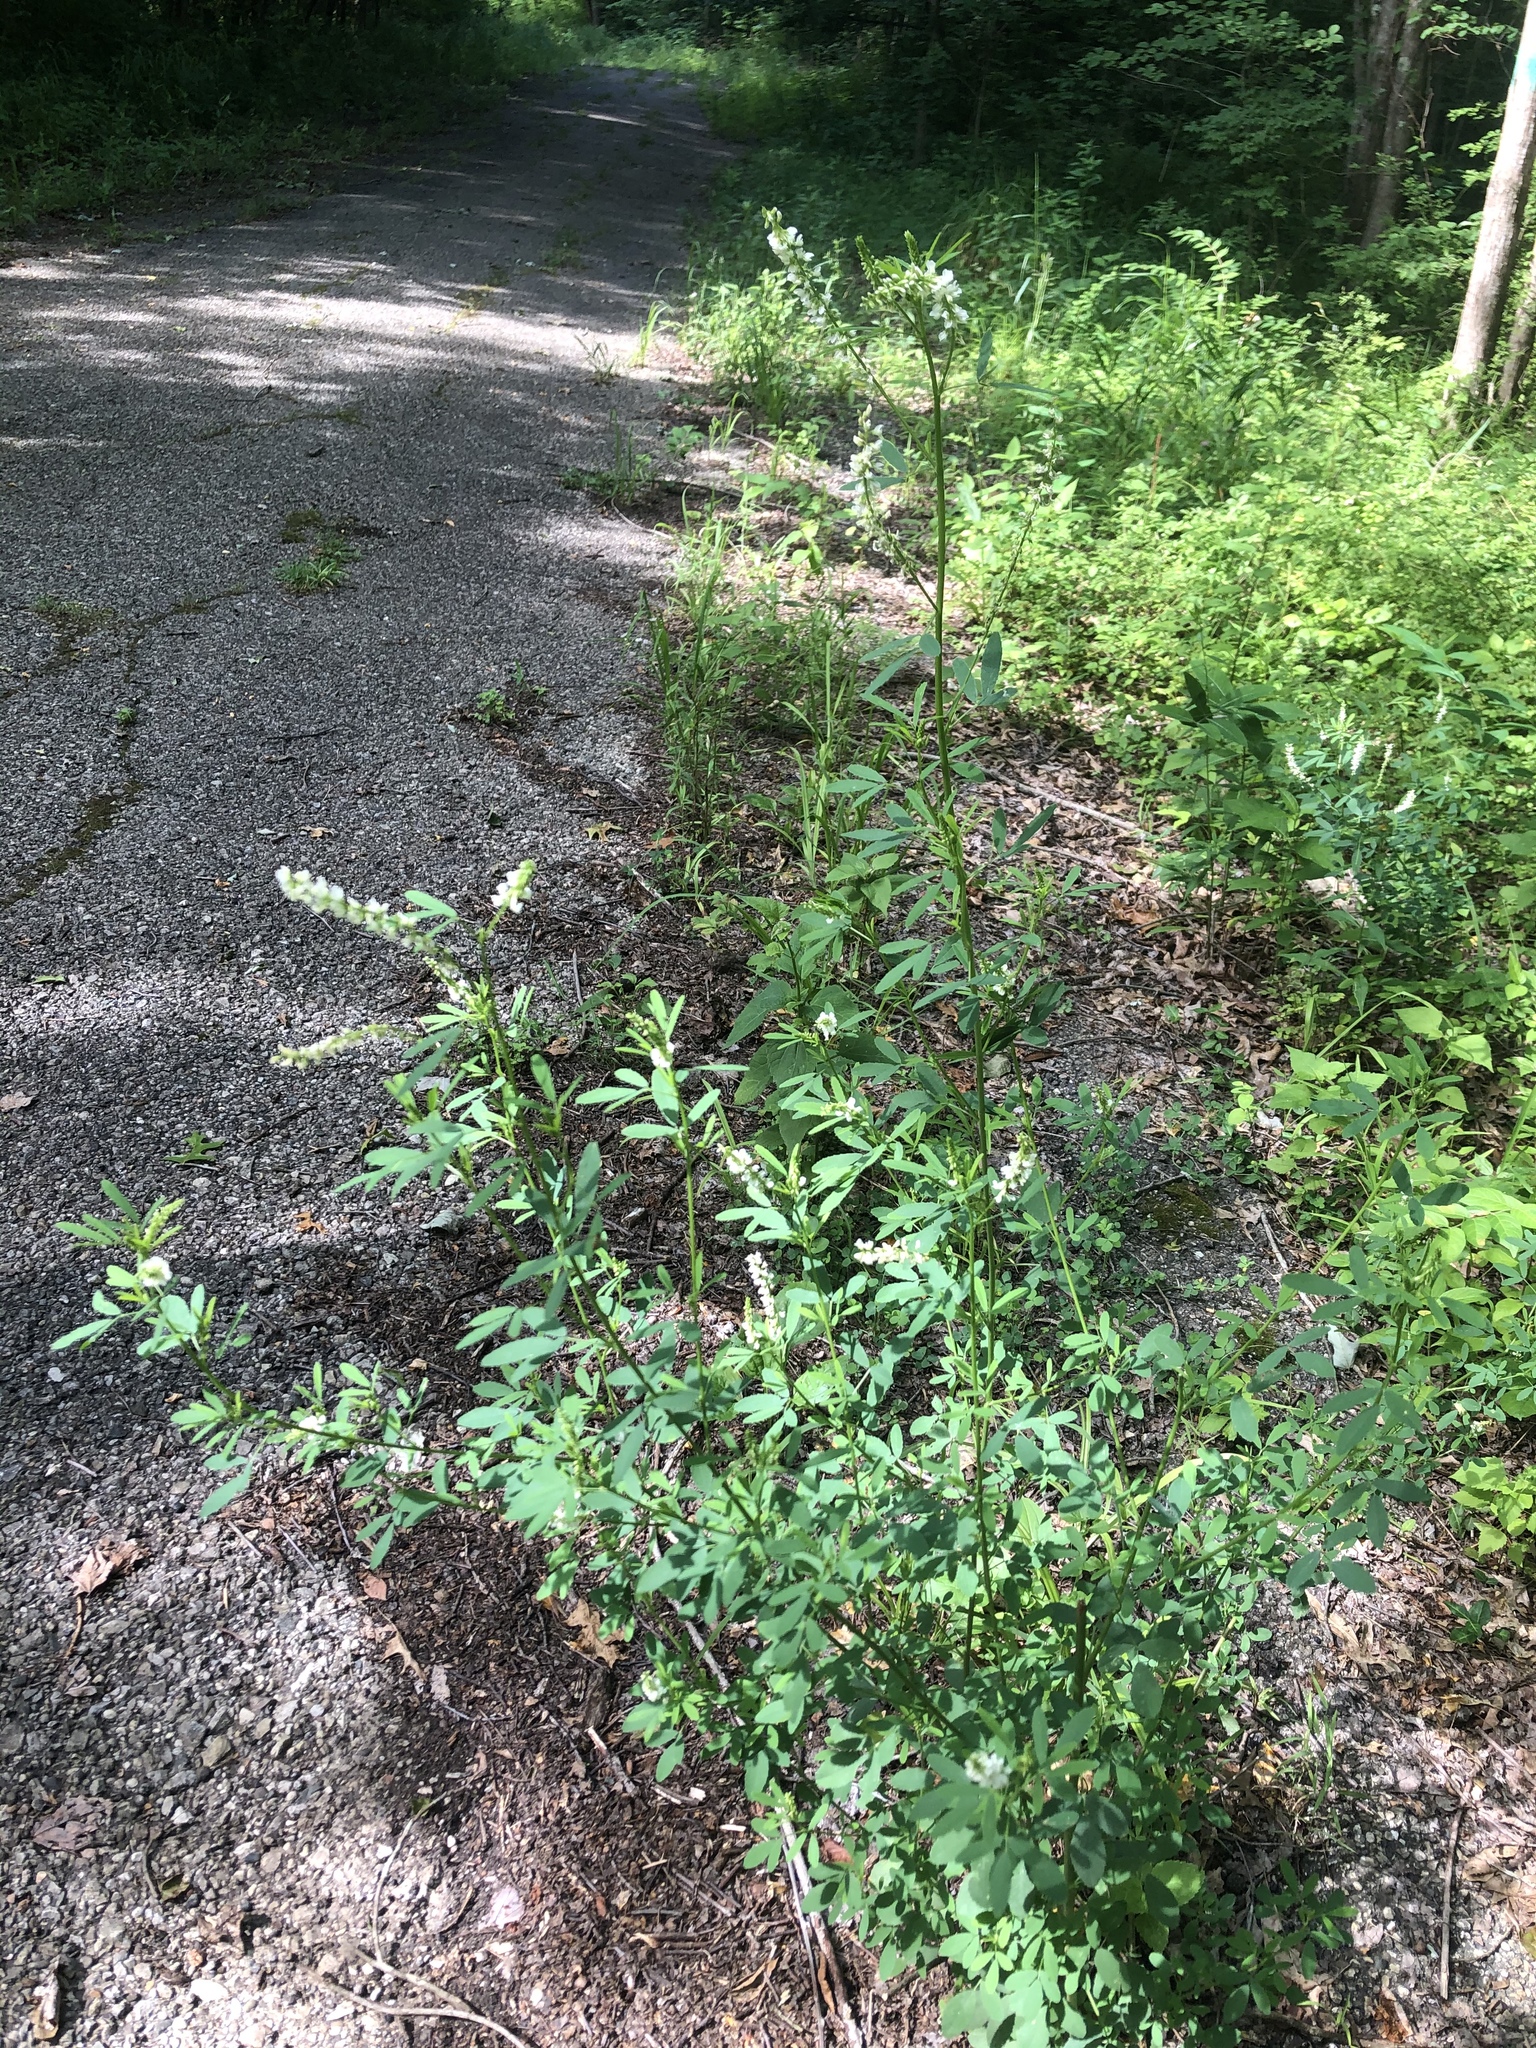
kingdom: Plantae
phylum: Tracheophyta
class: Magnoliopsida
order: Fabales
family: Fabaceae
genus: Melilotus
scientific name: Melilotus albus
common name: White melilot
